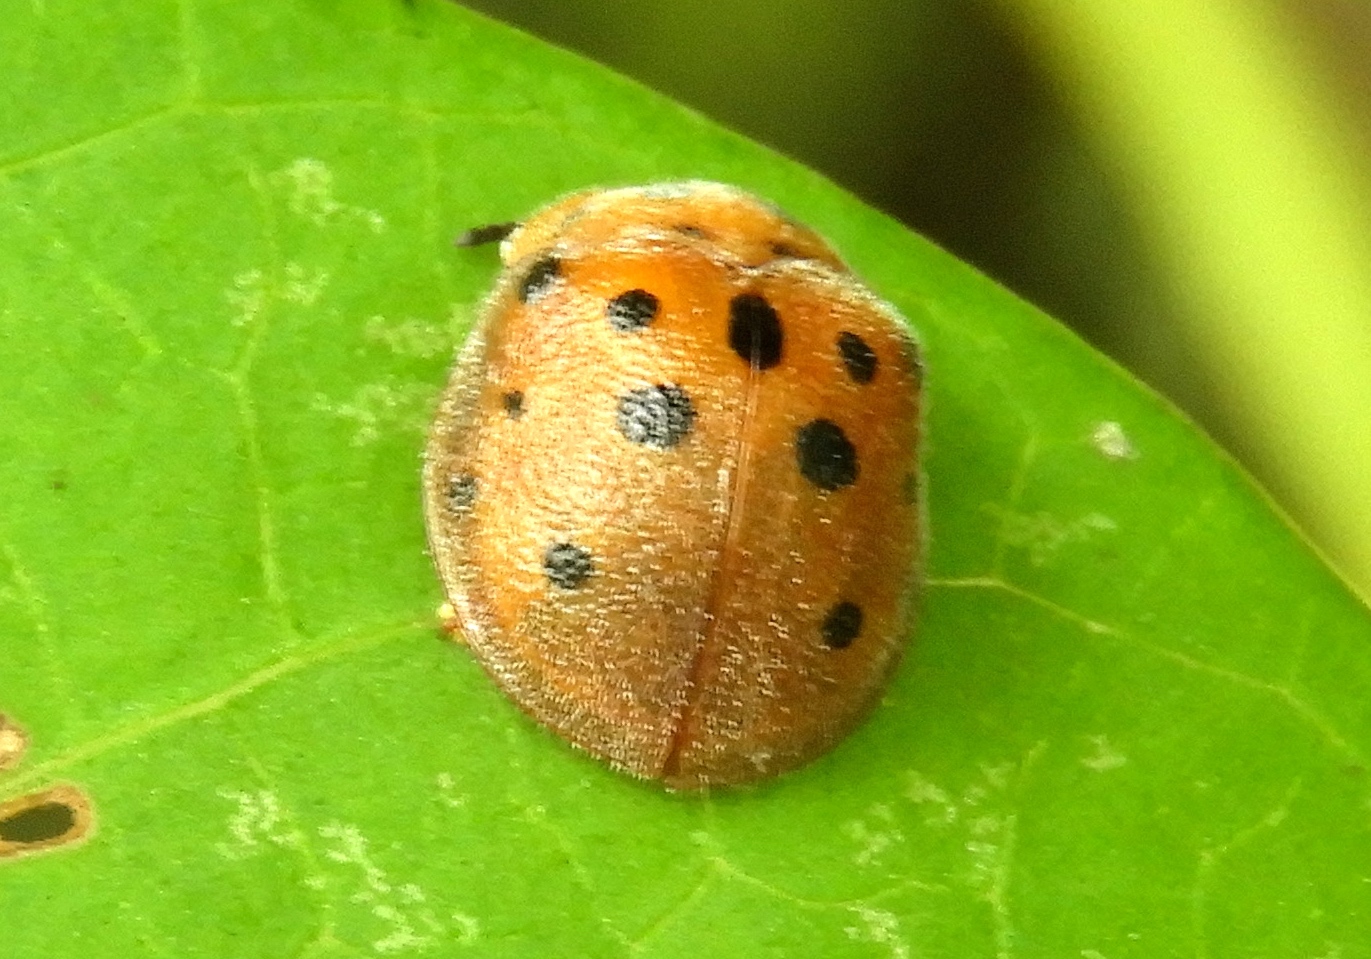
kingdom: Animalia
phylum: Arthropoda
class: Insecta
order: Coleoptera
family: Chrysomelidae
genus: Chelymorpha
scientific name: Chelymorpha
